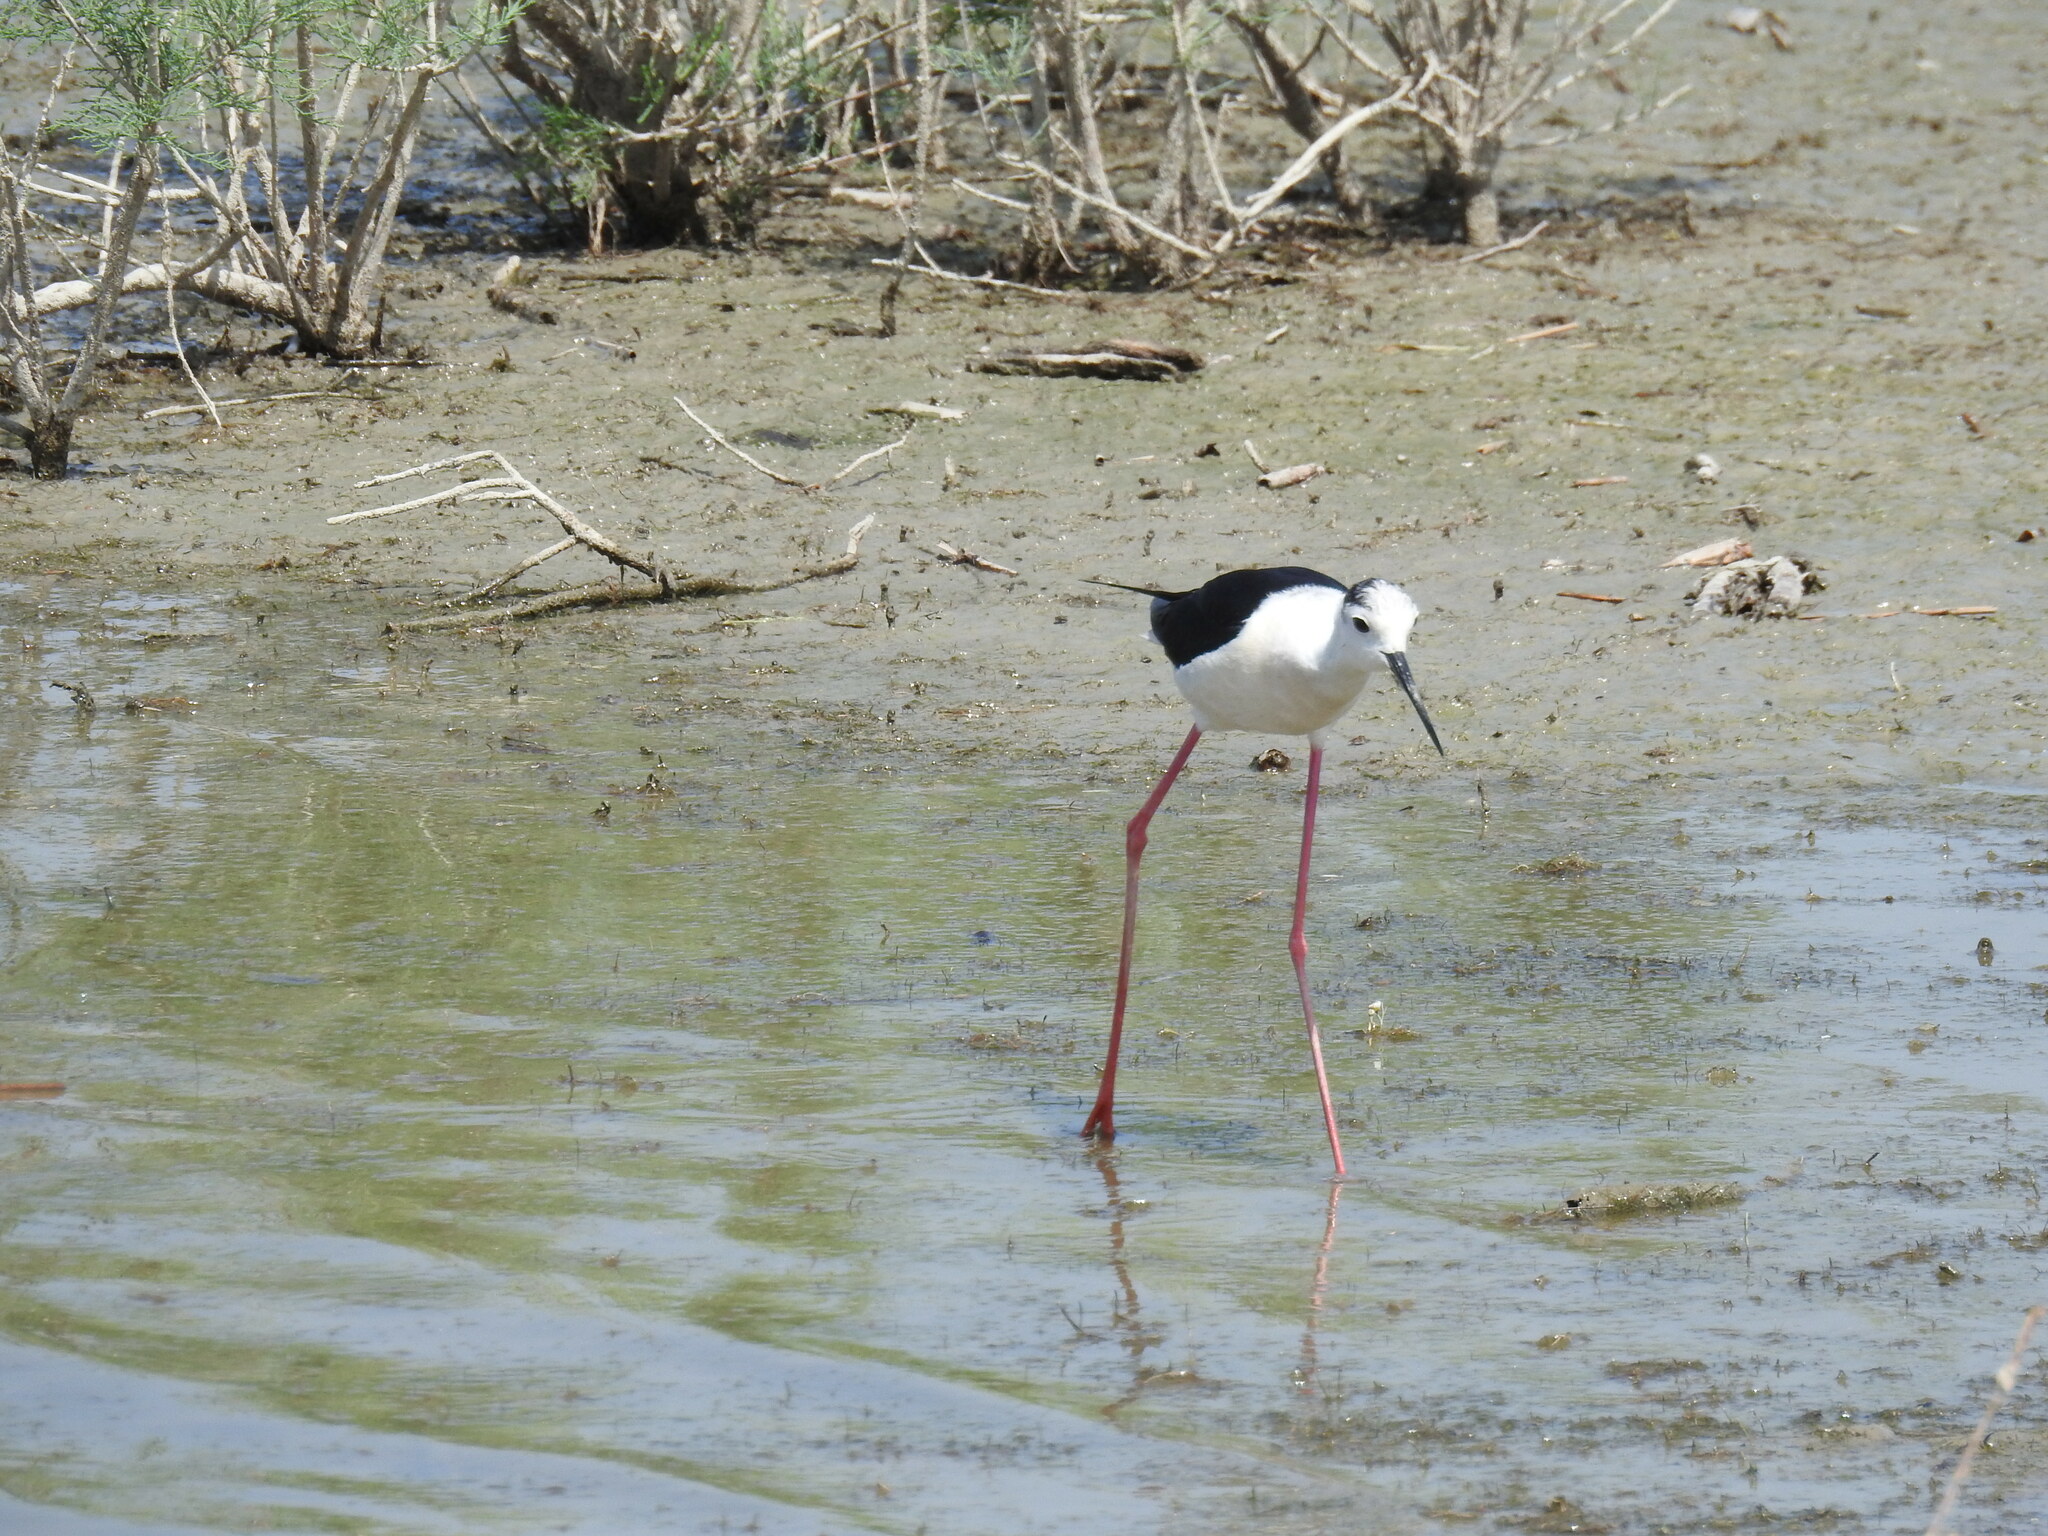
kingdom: Animalia
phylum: Chordata
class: Aves
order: Charadriiformes
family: Recurvirostridae
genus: Himantopus
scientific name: Himantopus himantopus
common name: Black-winged stilt
